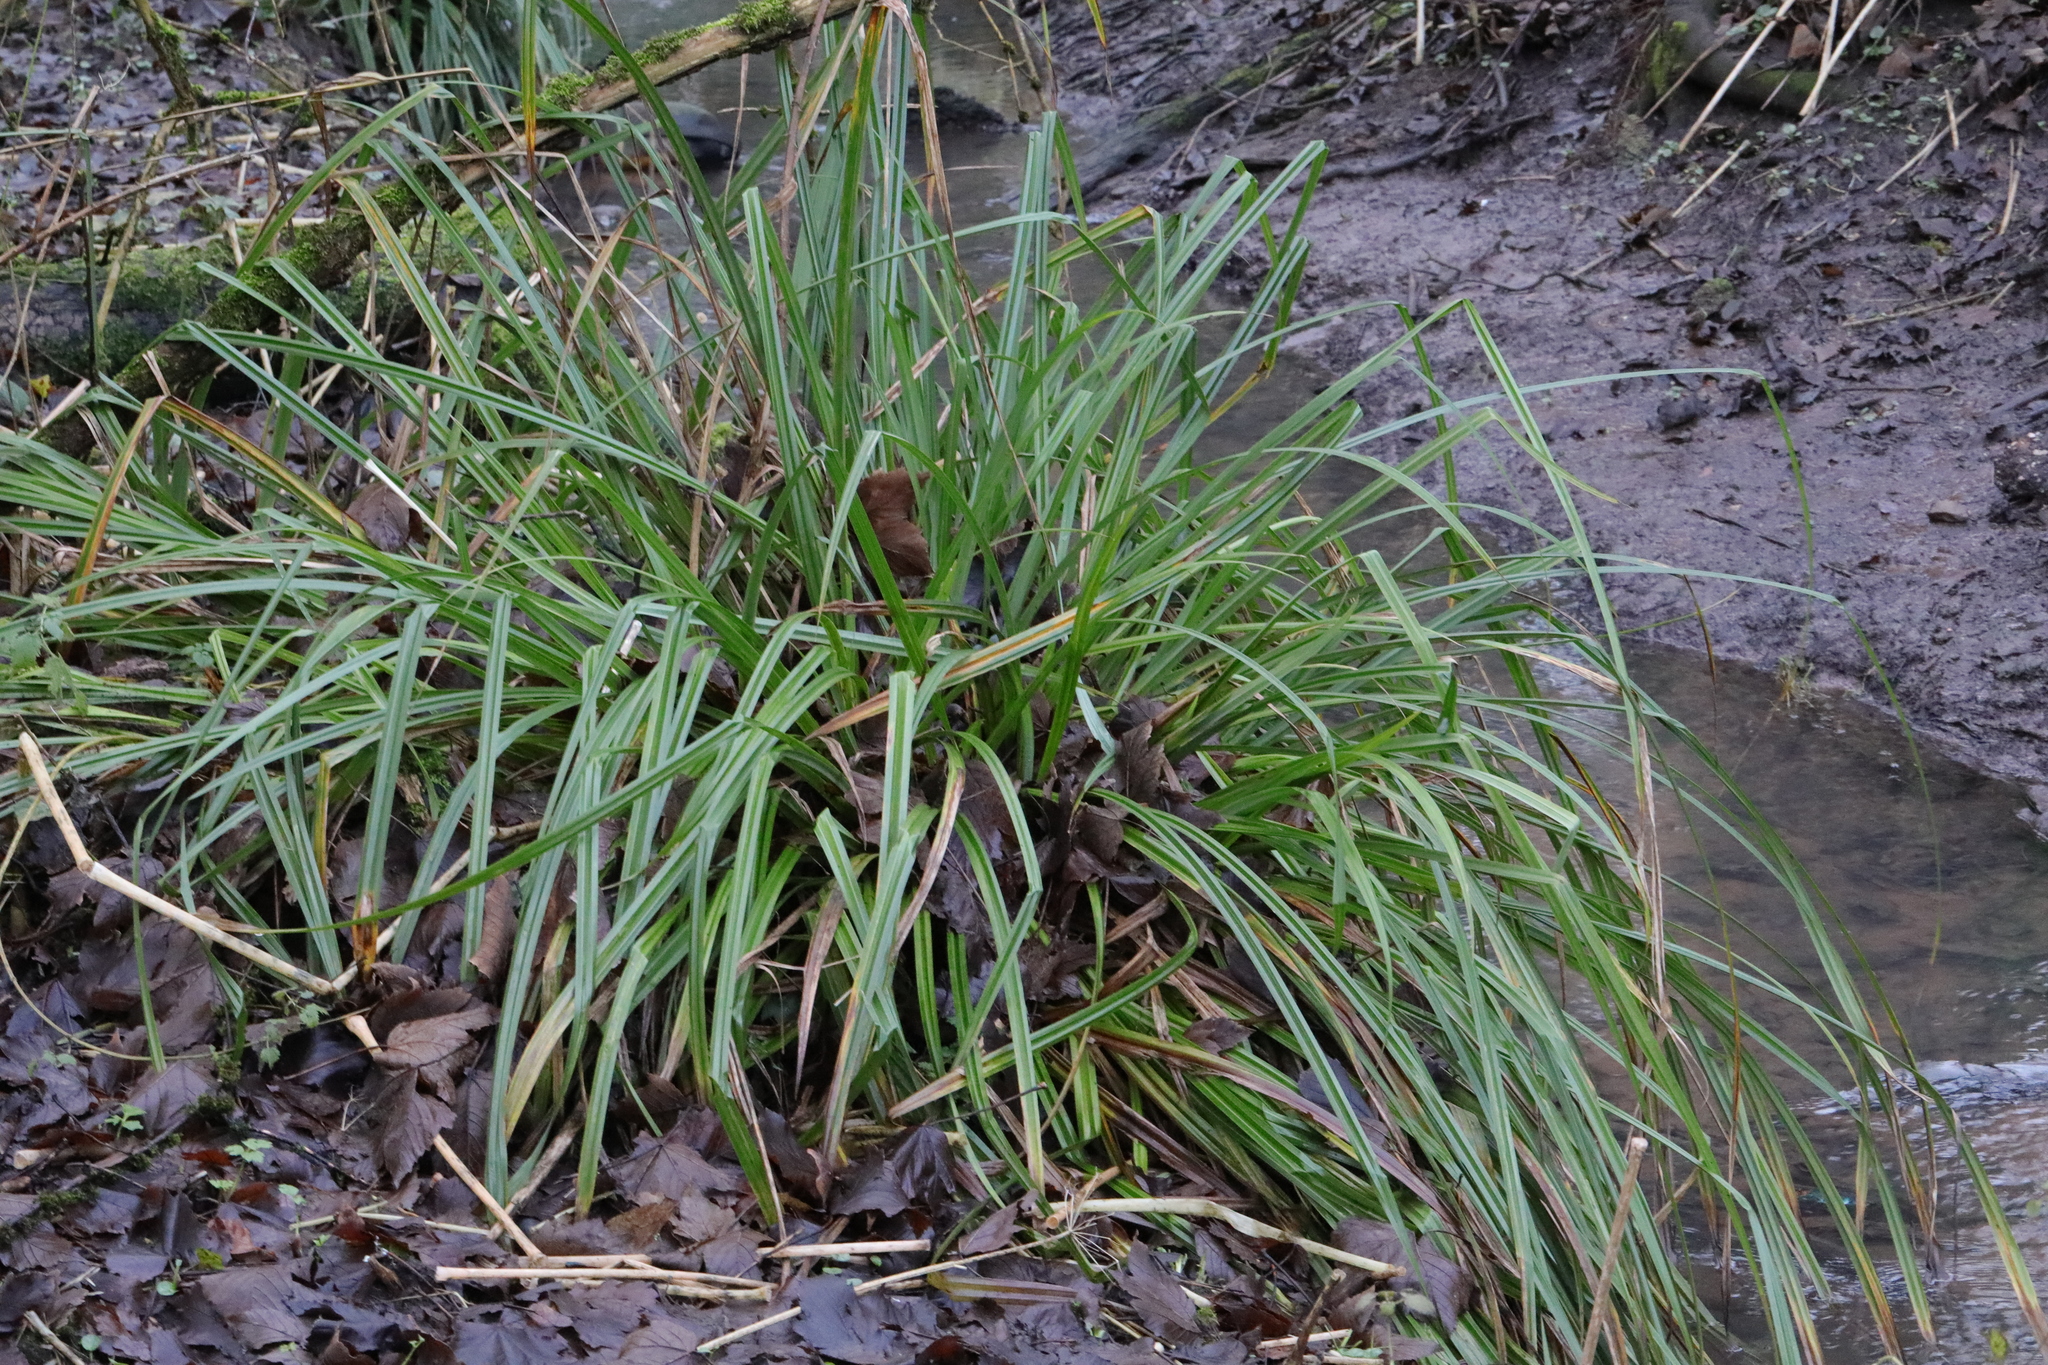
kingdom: Plantae
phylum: Tracheophyta
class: Liliopsida
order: Poales
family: Cyperaceae
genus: Carex
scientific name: Carex pendula
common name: Pendulous sedge
